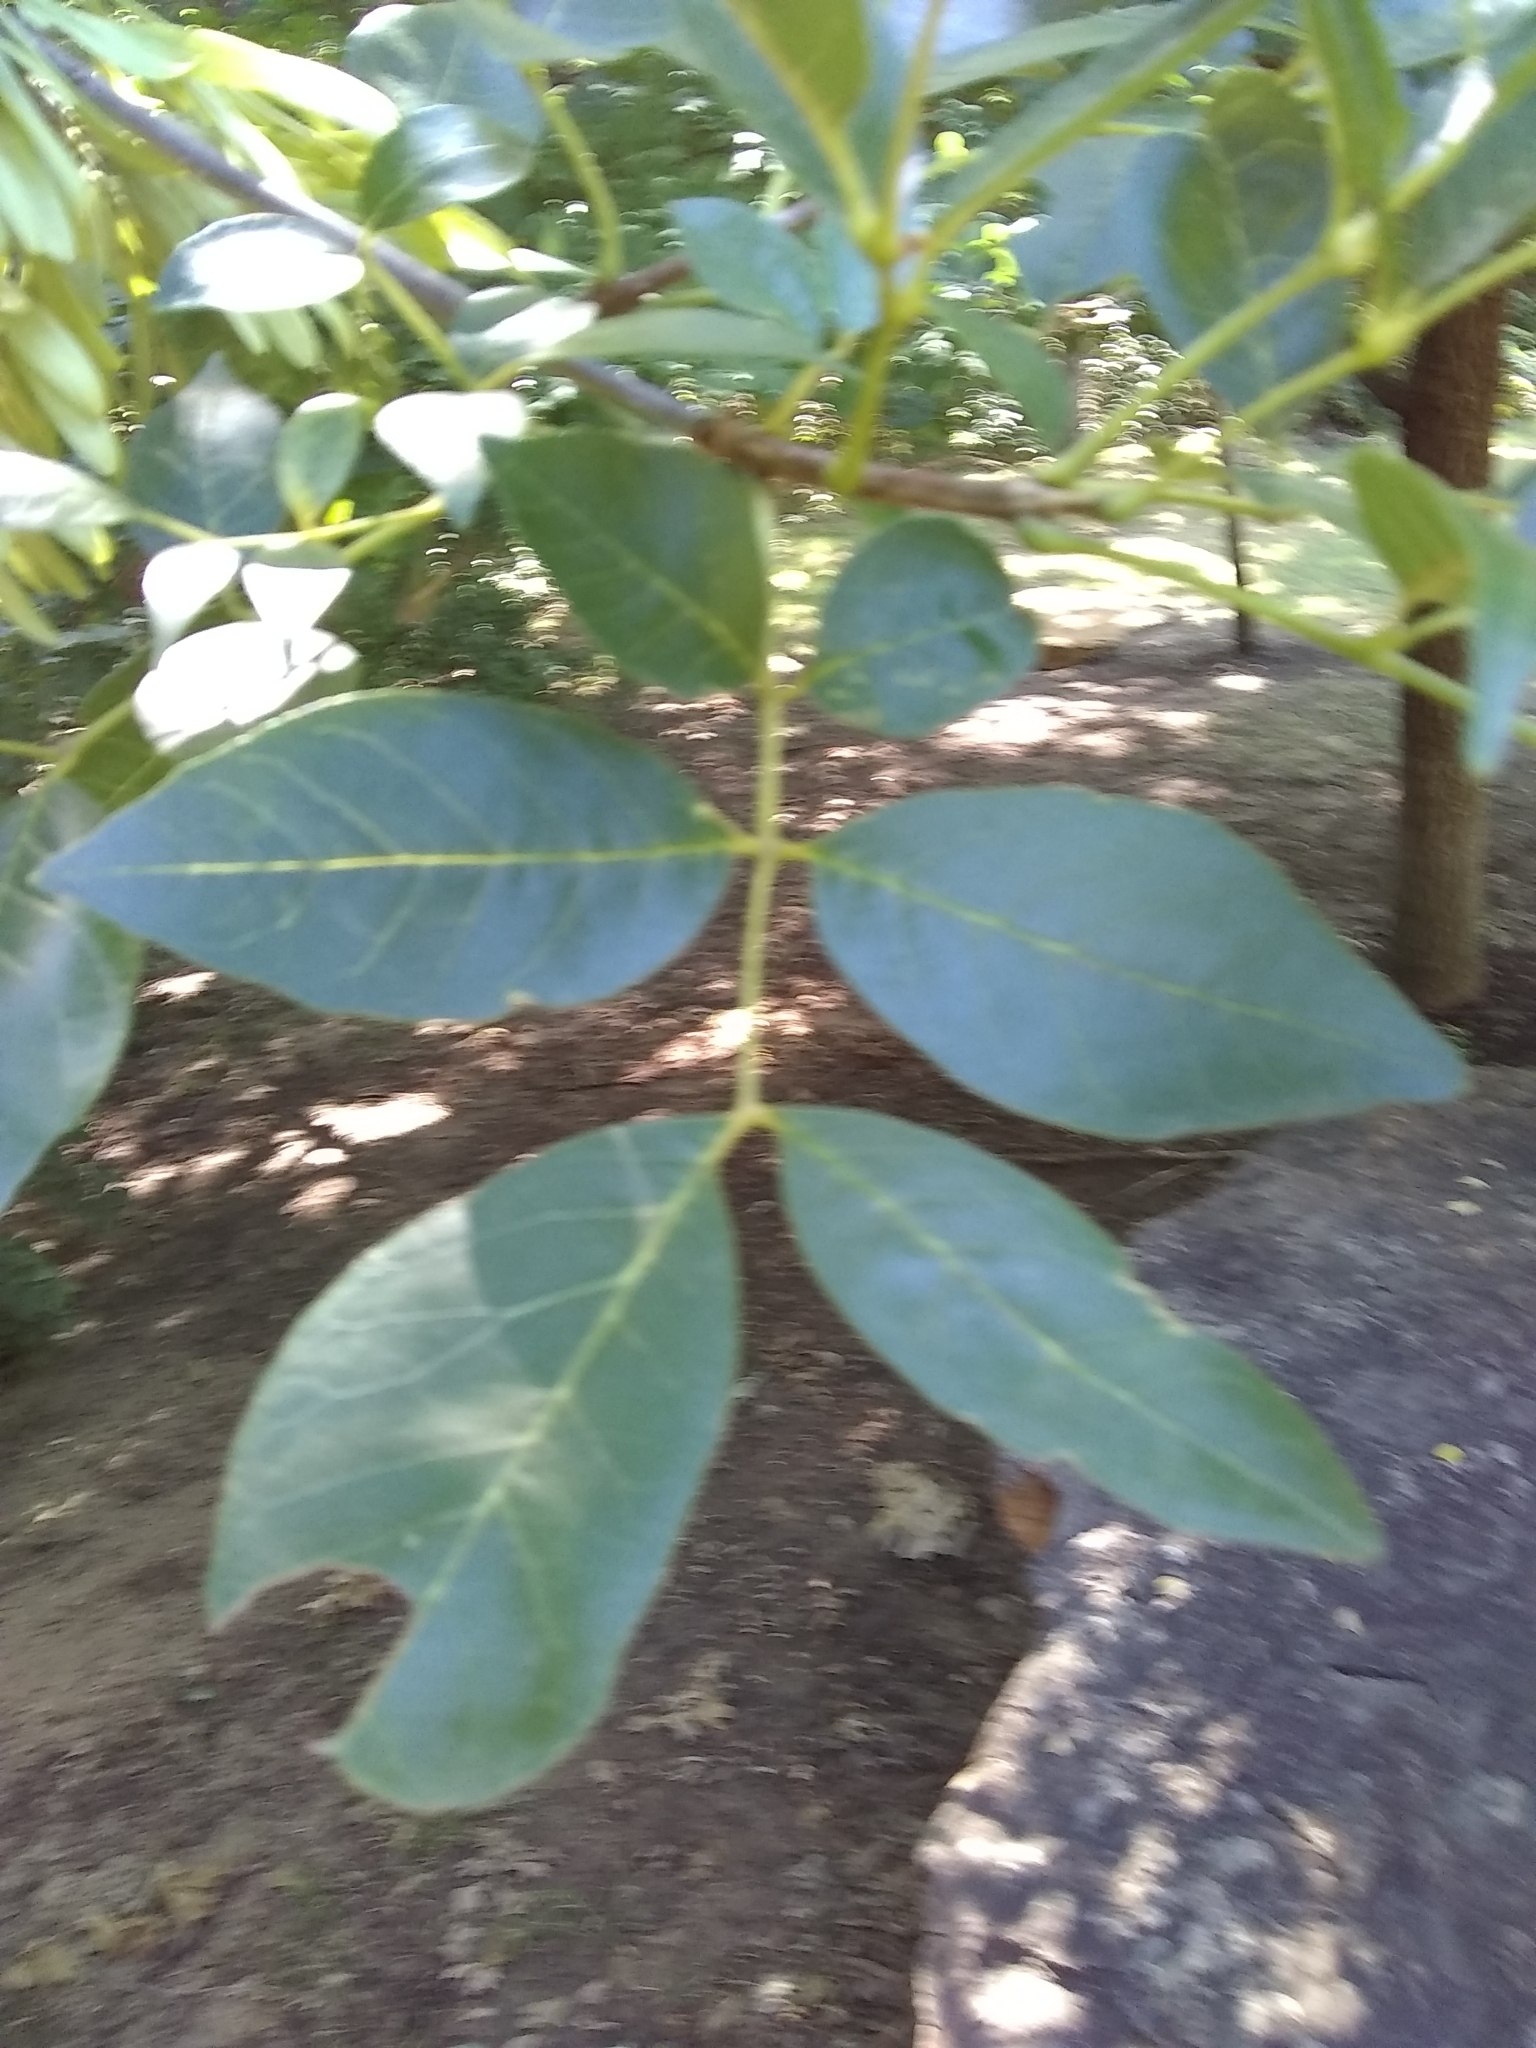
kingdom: Plantae
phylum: Tracheophyta
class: Magnoliopsida
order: Lamiales
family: Oleaceae
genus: Fraxinus
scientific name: Fraxinus pennsylvanica
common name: Green ash
